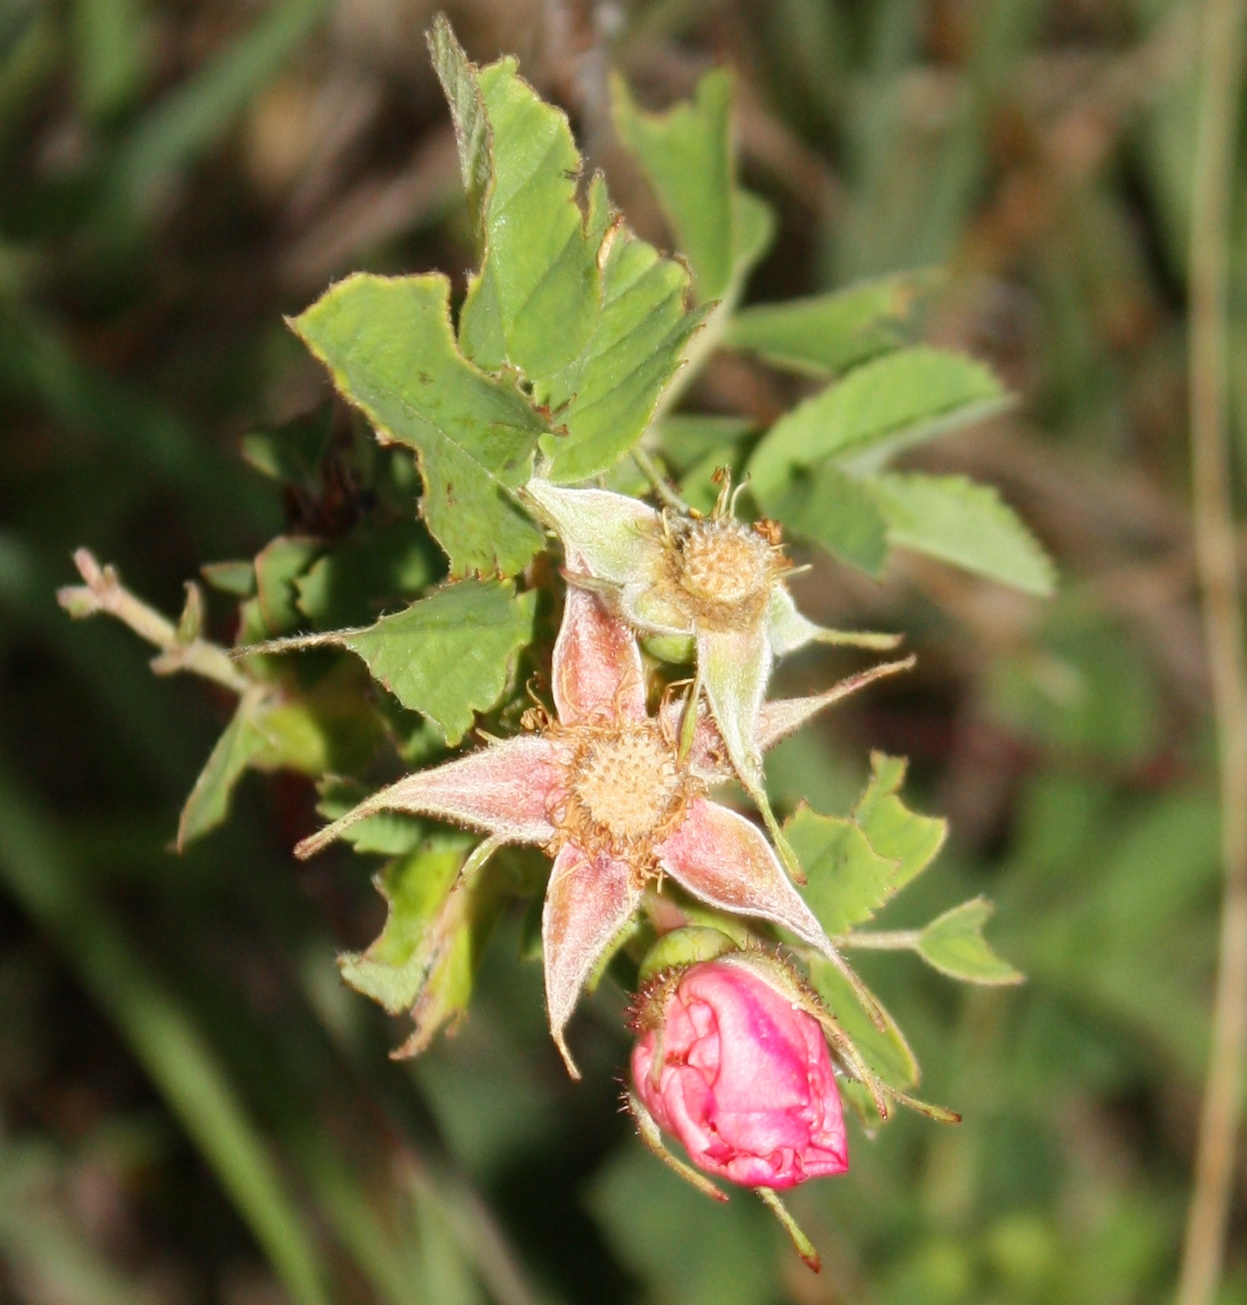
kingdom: Plantae
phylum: Tracheophyta
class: Magnoliopsida
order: Rosales
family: Rosaceae
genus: Rosa
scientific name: Rosa arkansana
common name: Prairie rose
